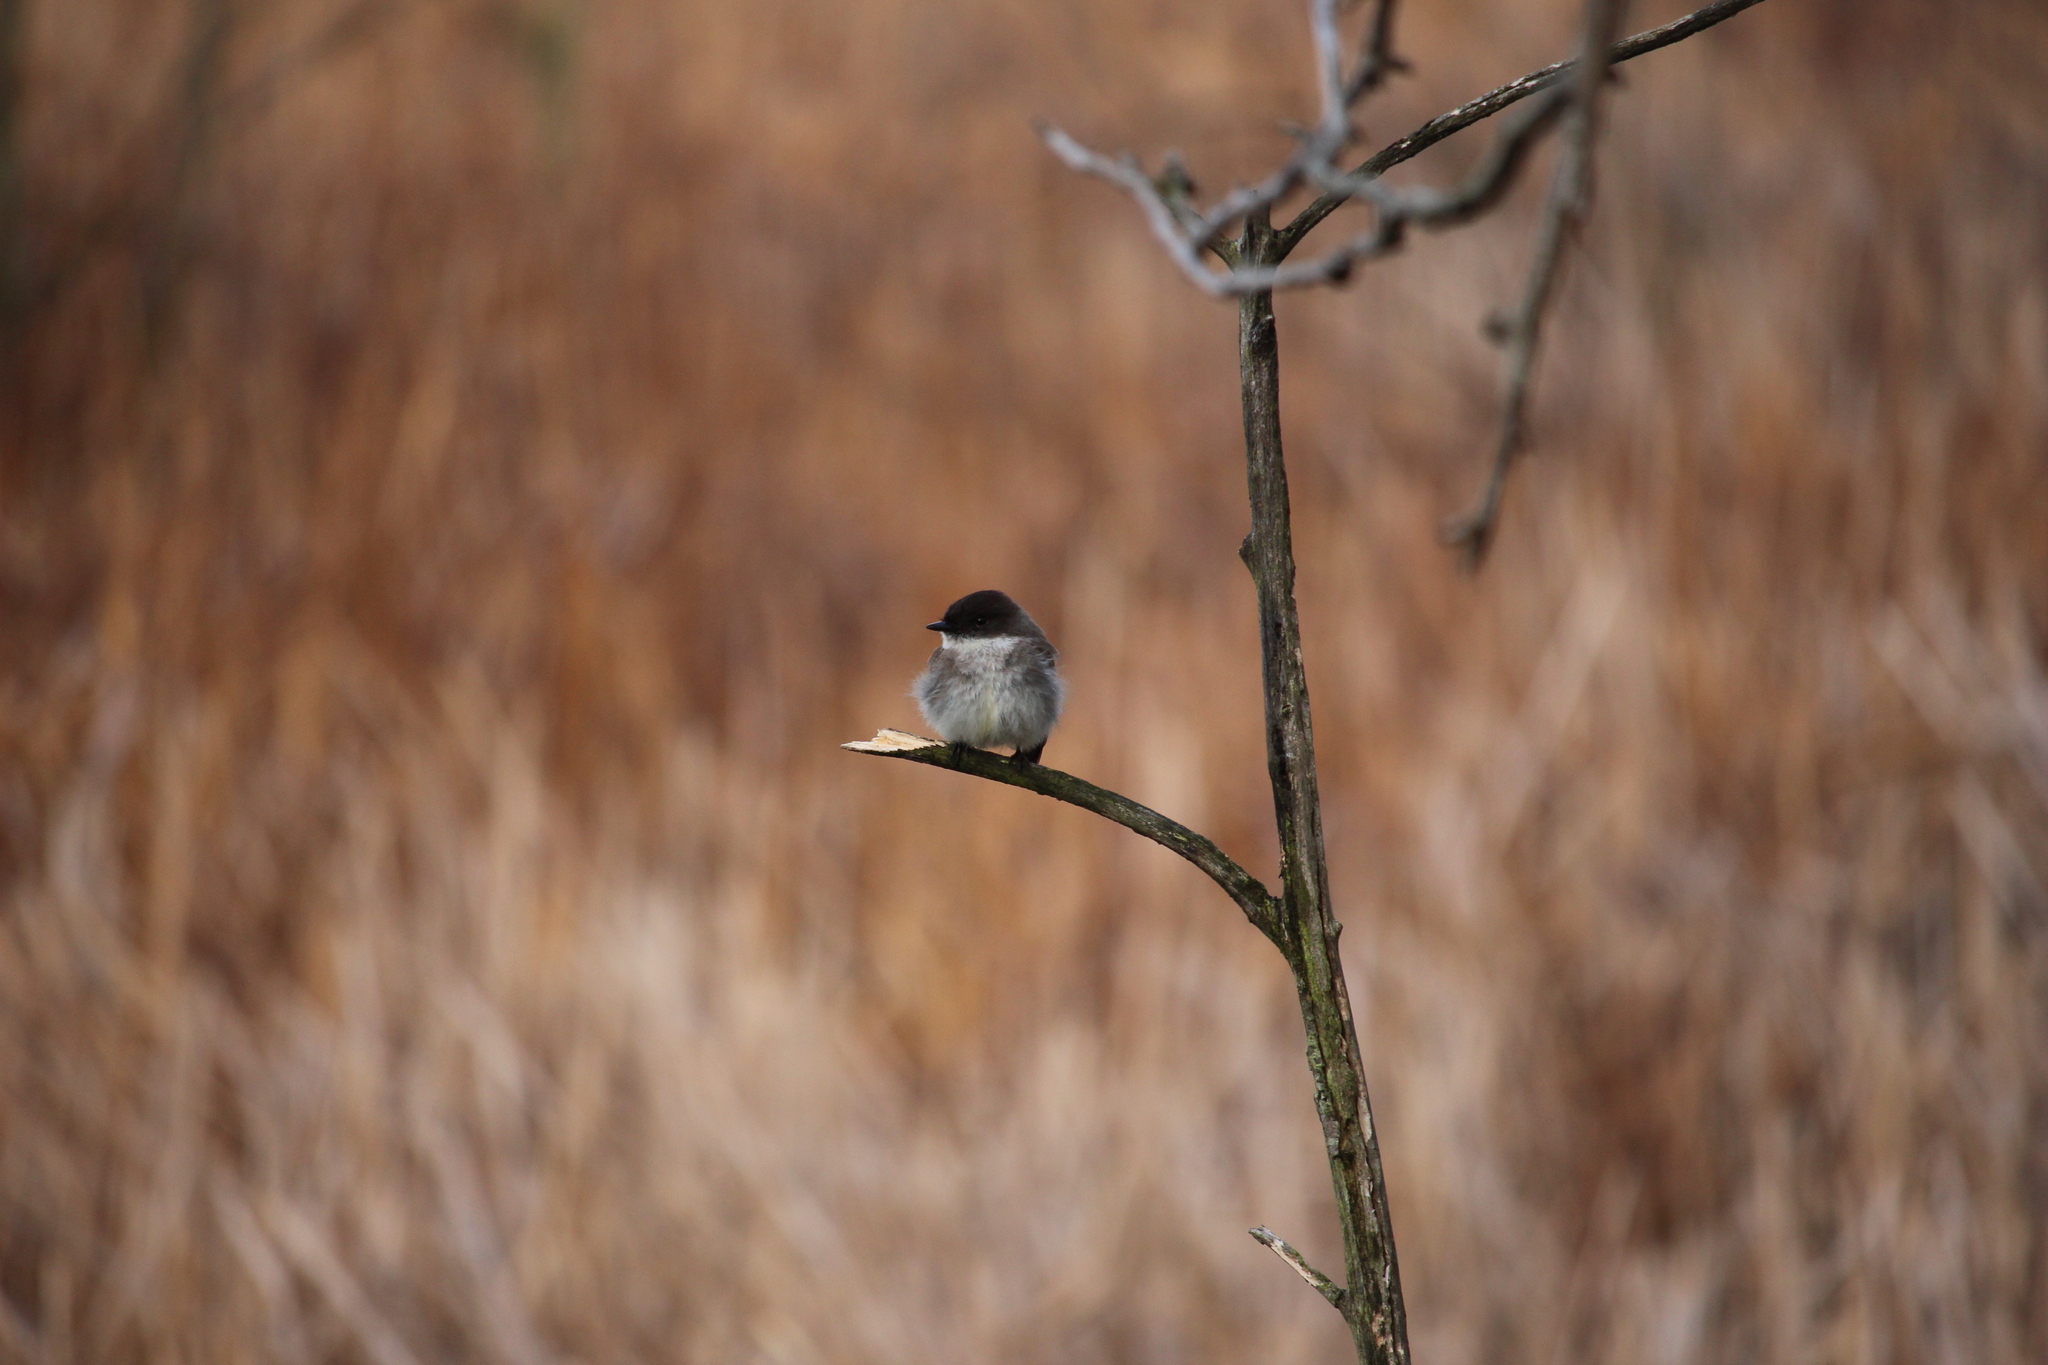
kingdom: Animalia
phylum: Chordata
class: Aves
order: Passeriformes
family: Tyrannidae
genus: Sayornis
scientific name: Sayornis phoebe
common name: Eastern phoebe
